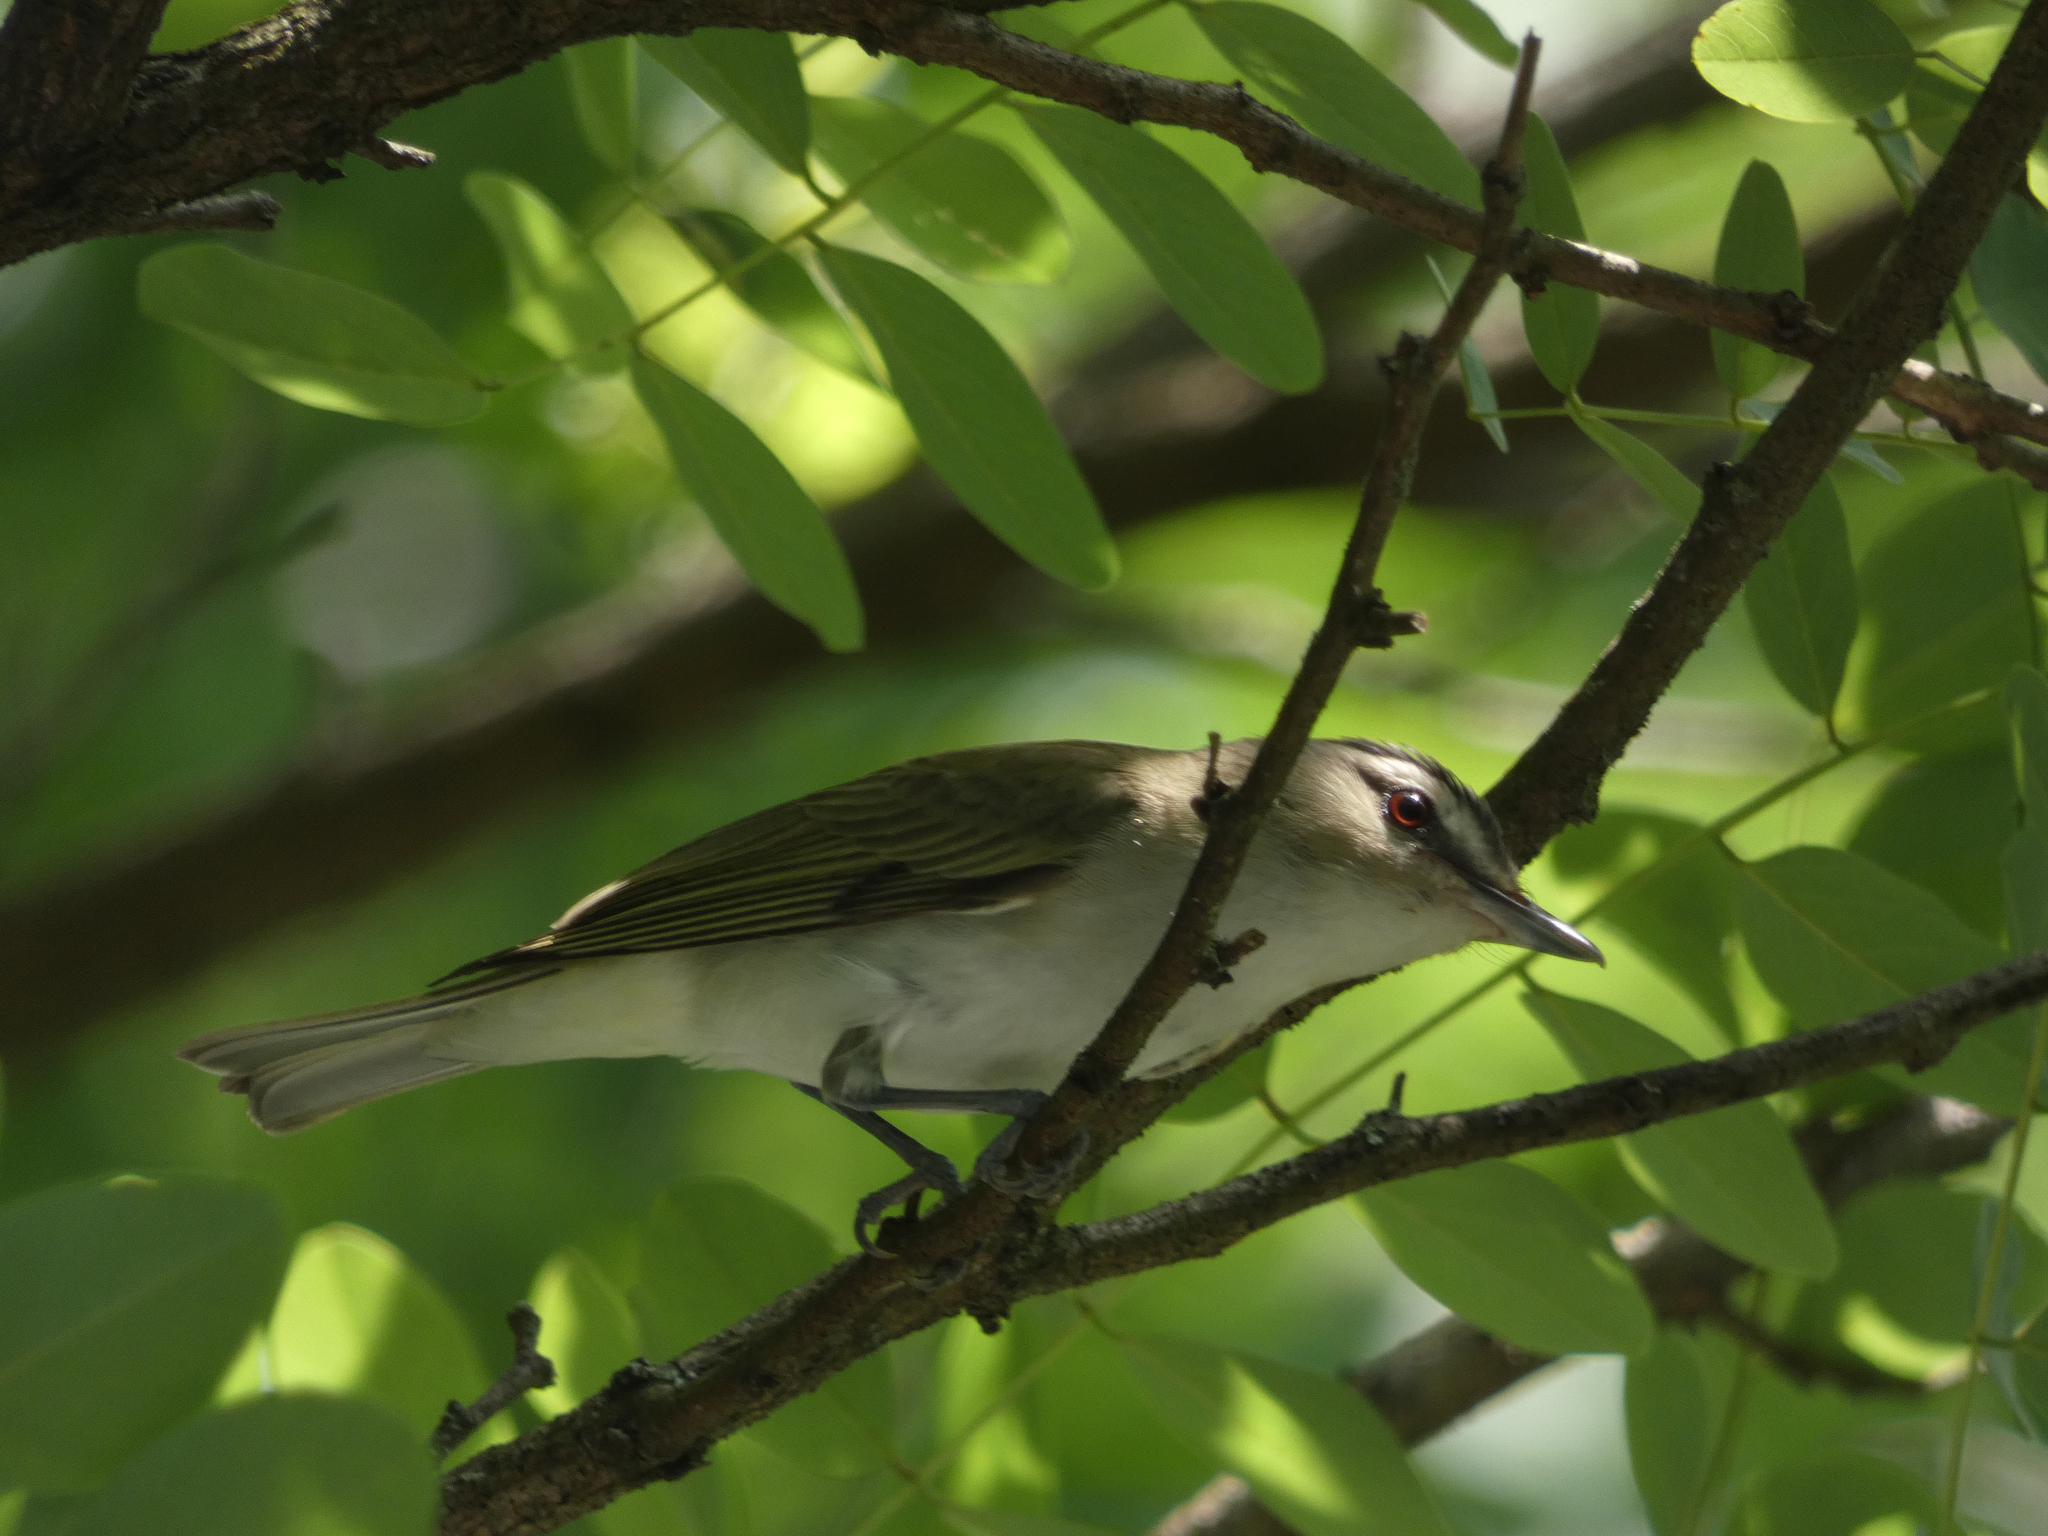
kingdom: Animalia
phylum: Chordata
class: Aves
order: Passeriformes
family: Vireonidae
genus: Vireo
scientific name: Vireo olivaceus
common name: Red-eyed vireo
